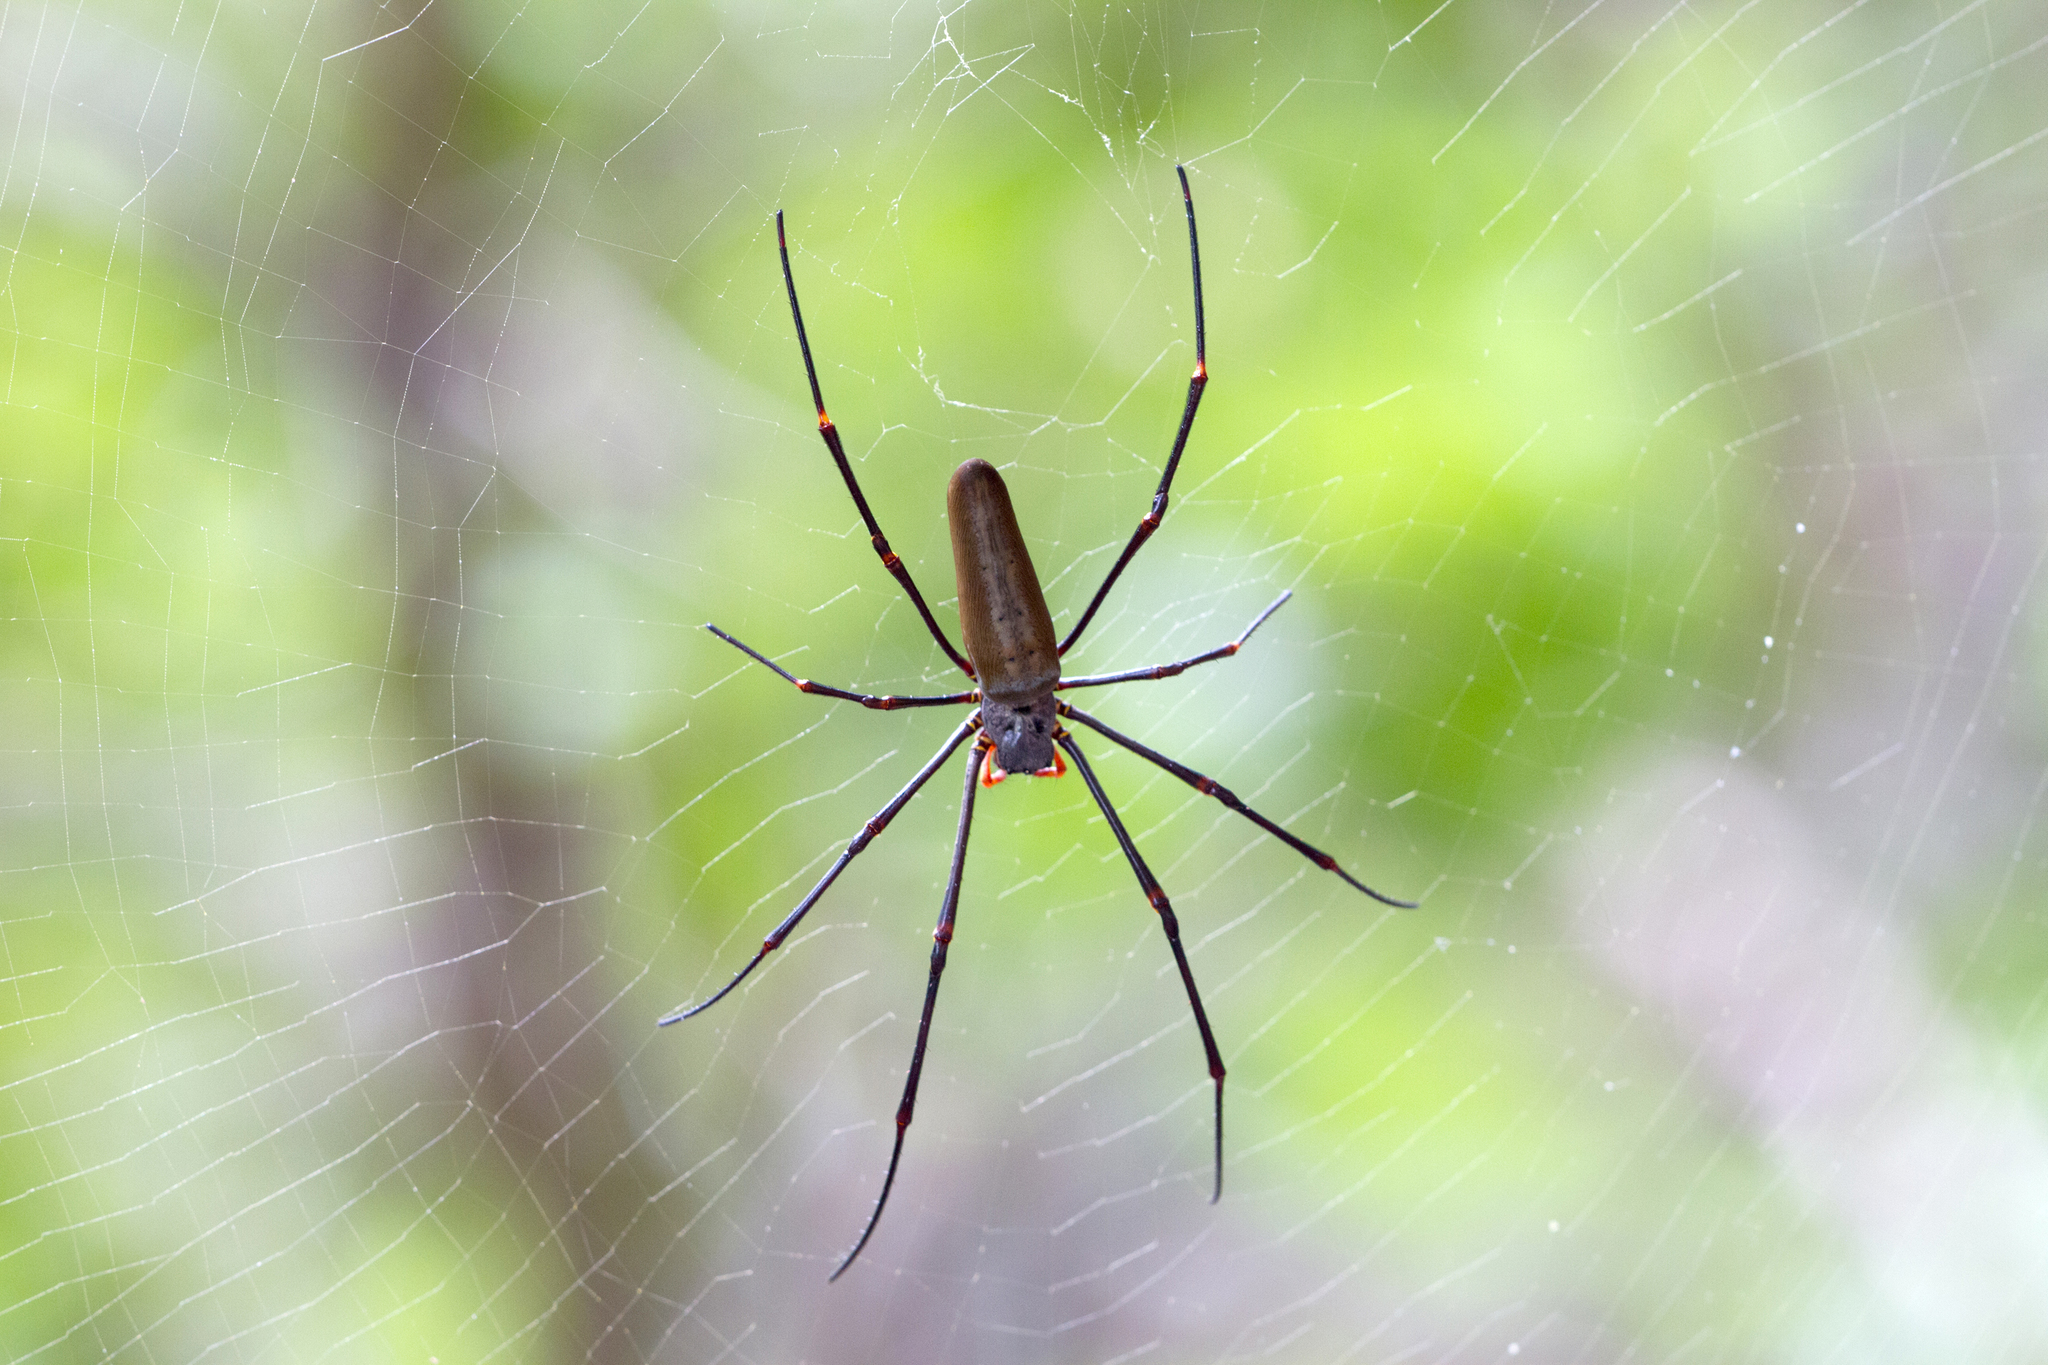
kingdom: Animalia
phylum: Arthropoda
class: Arachnida
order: Araneae
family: Araneidae
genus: Nephila
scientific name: Nephila pilipes
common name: Giant golden orb weaver
